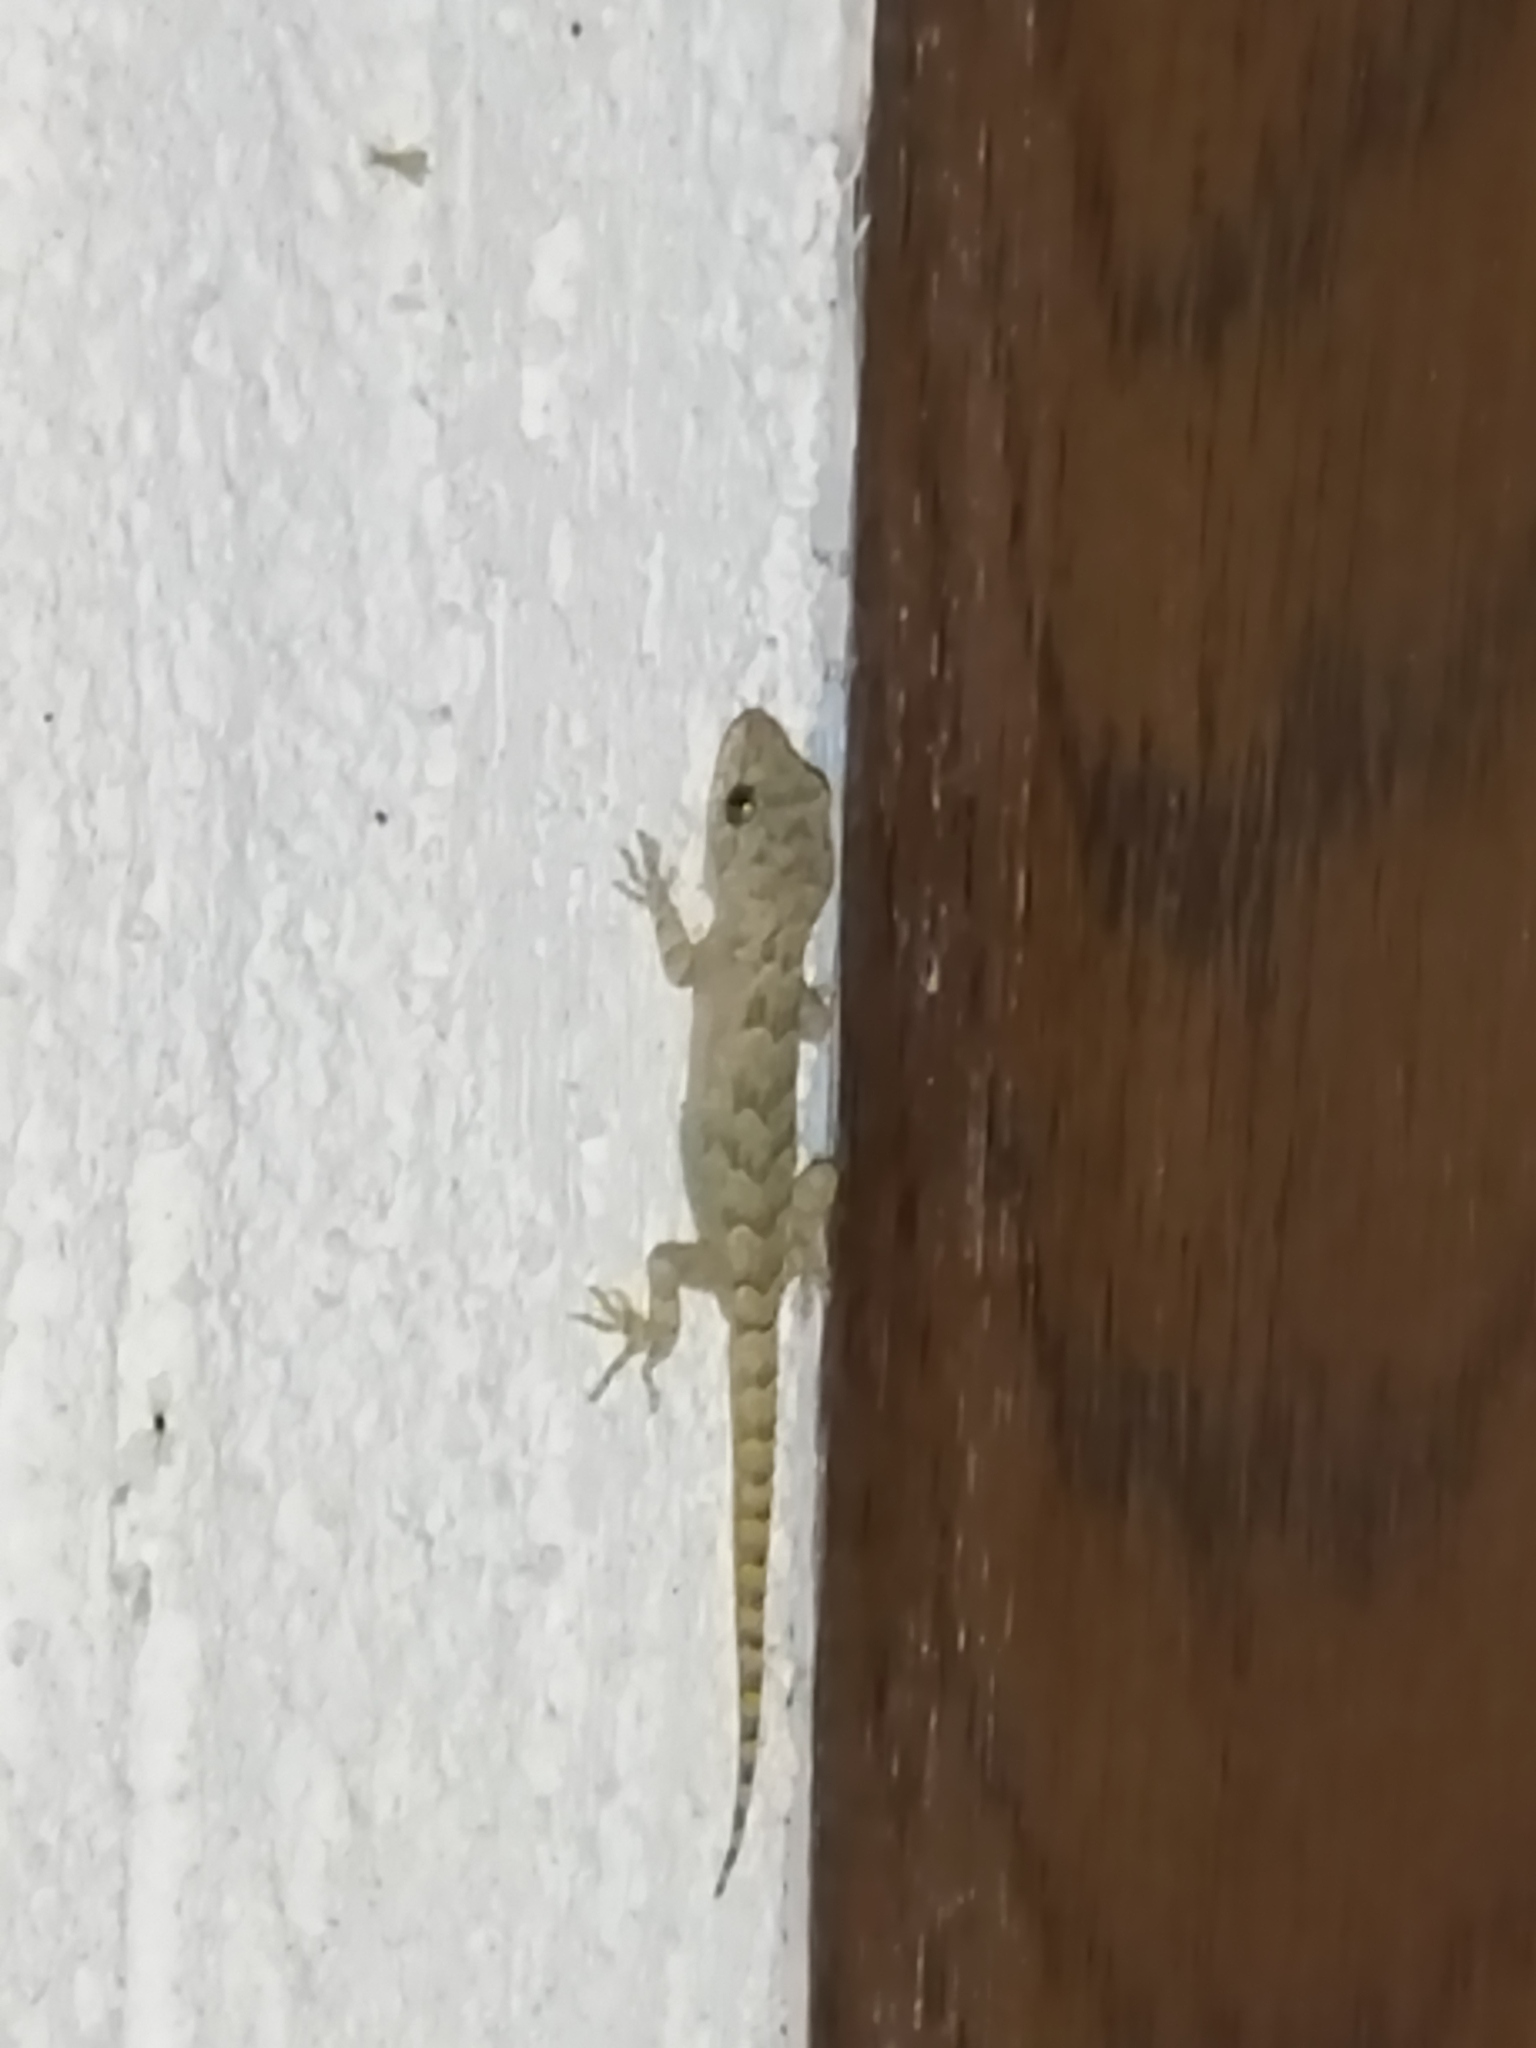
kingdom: Animalia
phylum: Chordata
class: Squamata
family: Gekkonidae
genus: Mediodactylus
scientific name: Mediodactylus kotschyi
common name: Kotschy's gecko
